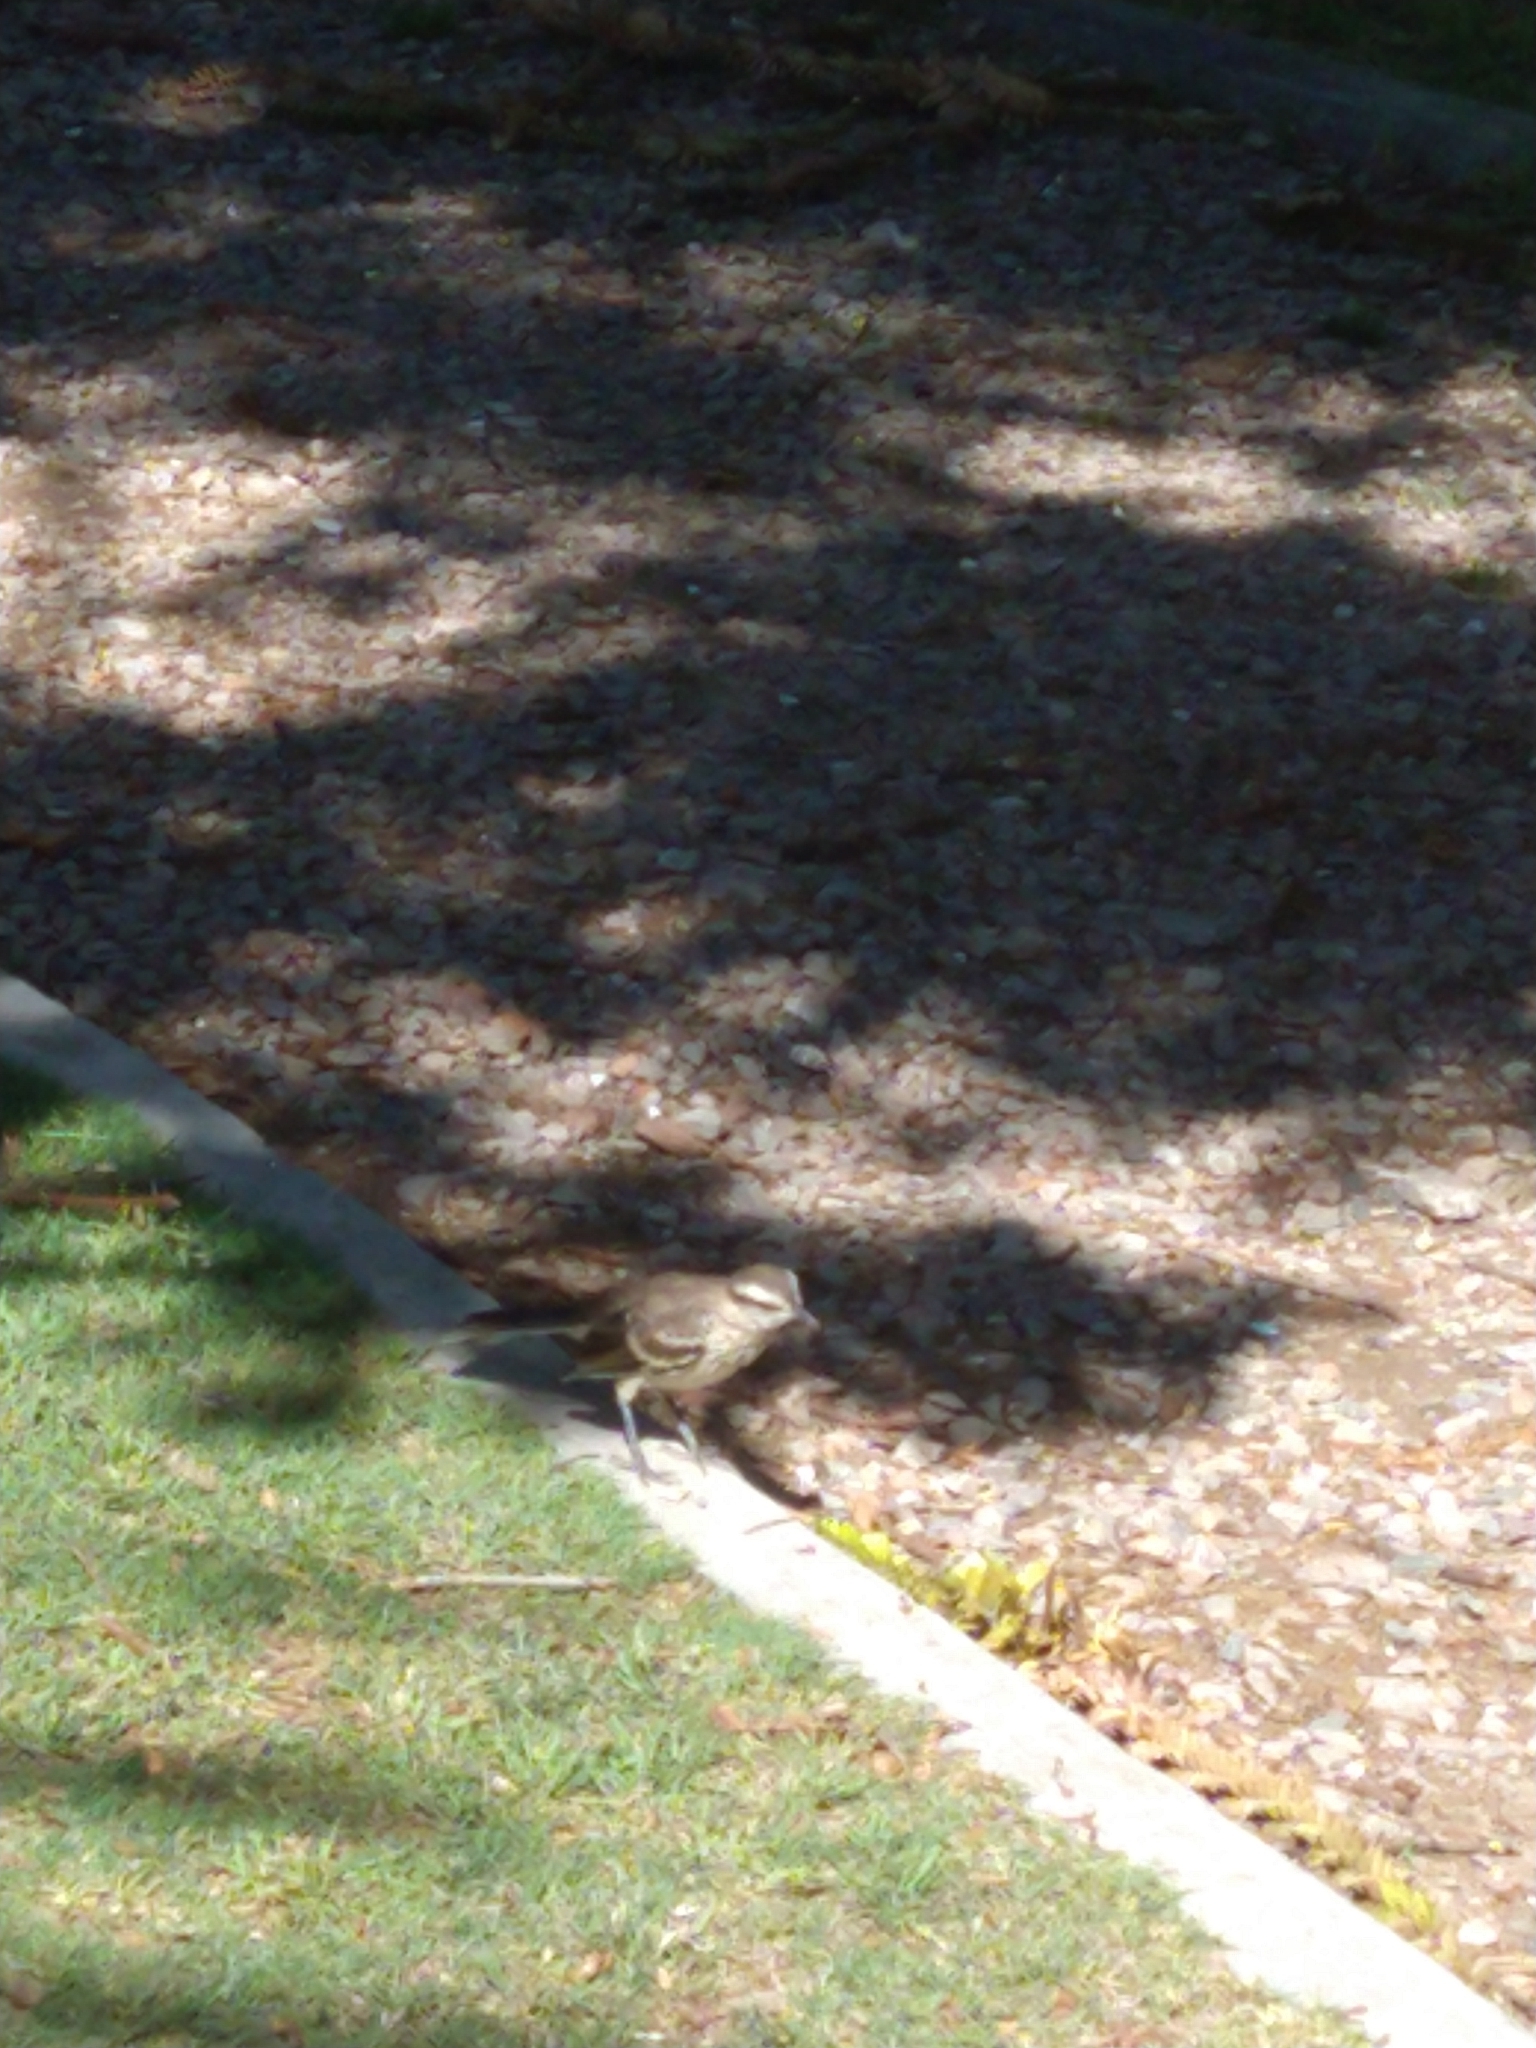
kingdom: Animalia
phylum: Chordata
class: Aves
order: Passeriformes
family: Mimidae
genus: Mimus
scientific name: Mimus saturninus
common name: Chalk-browed mockingbird
